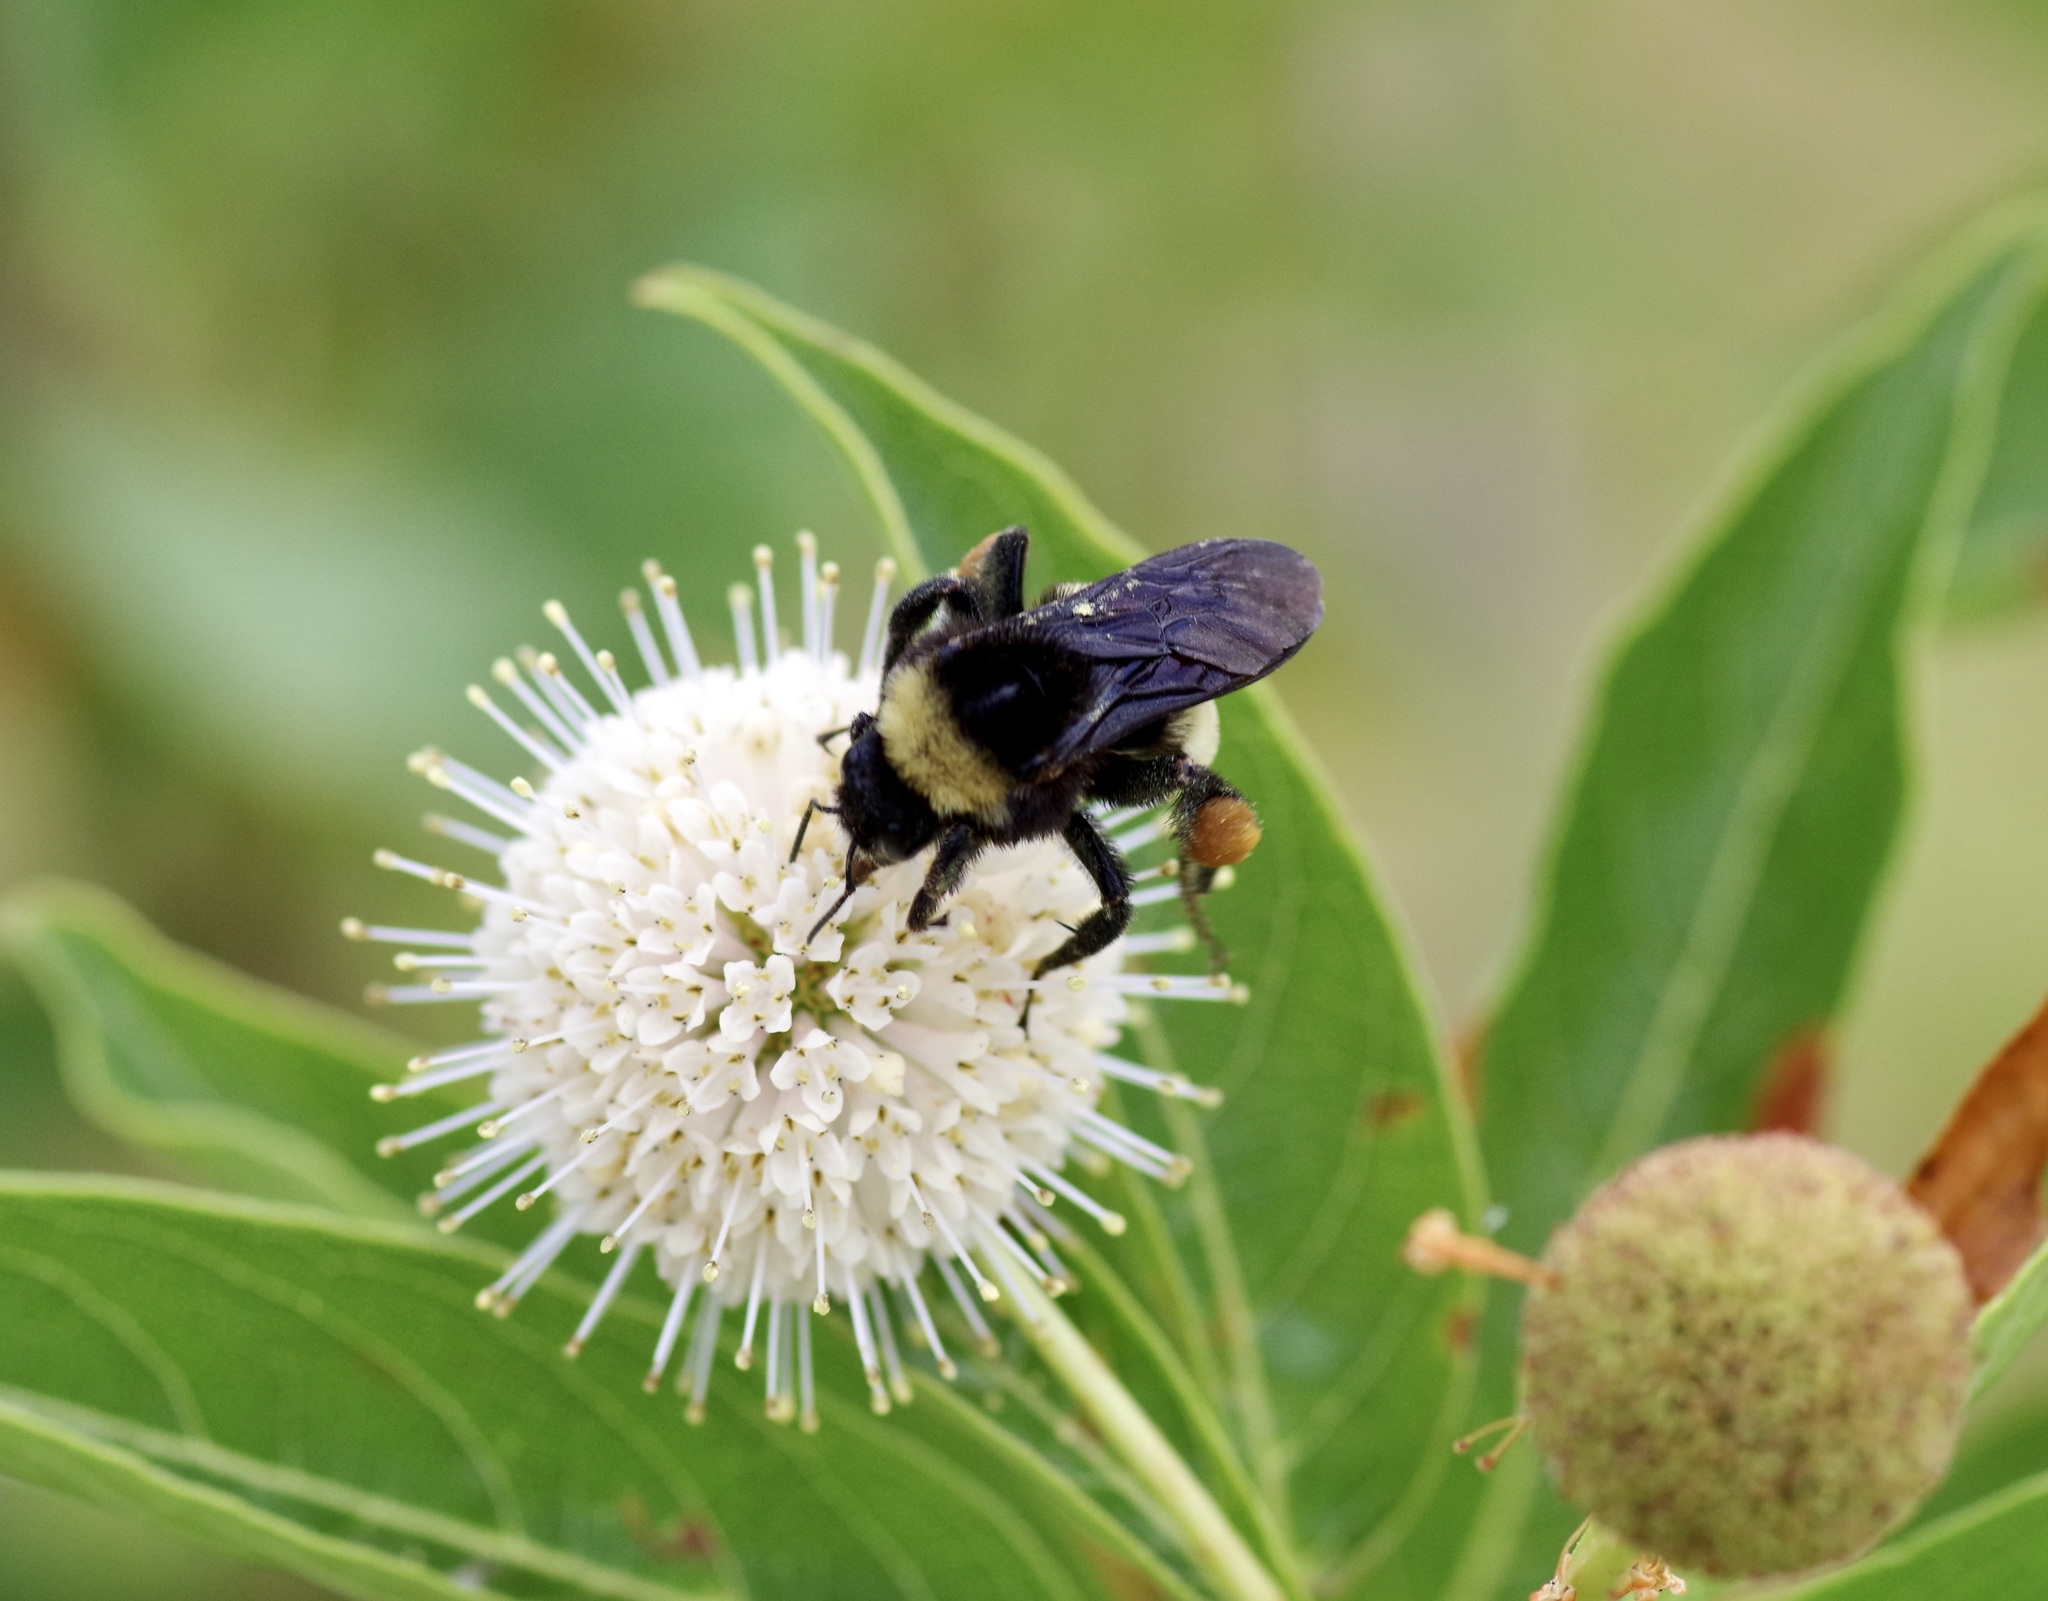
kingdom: Animalia
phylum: Arthropoda
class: Insecta
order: Hymenoptera
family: Apidae
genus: Bombus
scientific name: Bombus pensylvanicus
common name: Bumble bee
